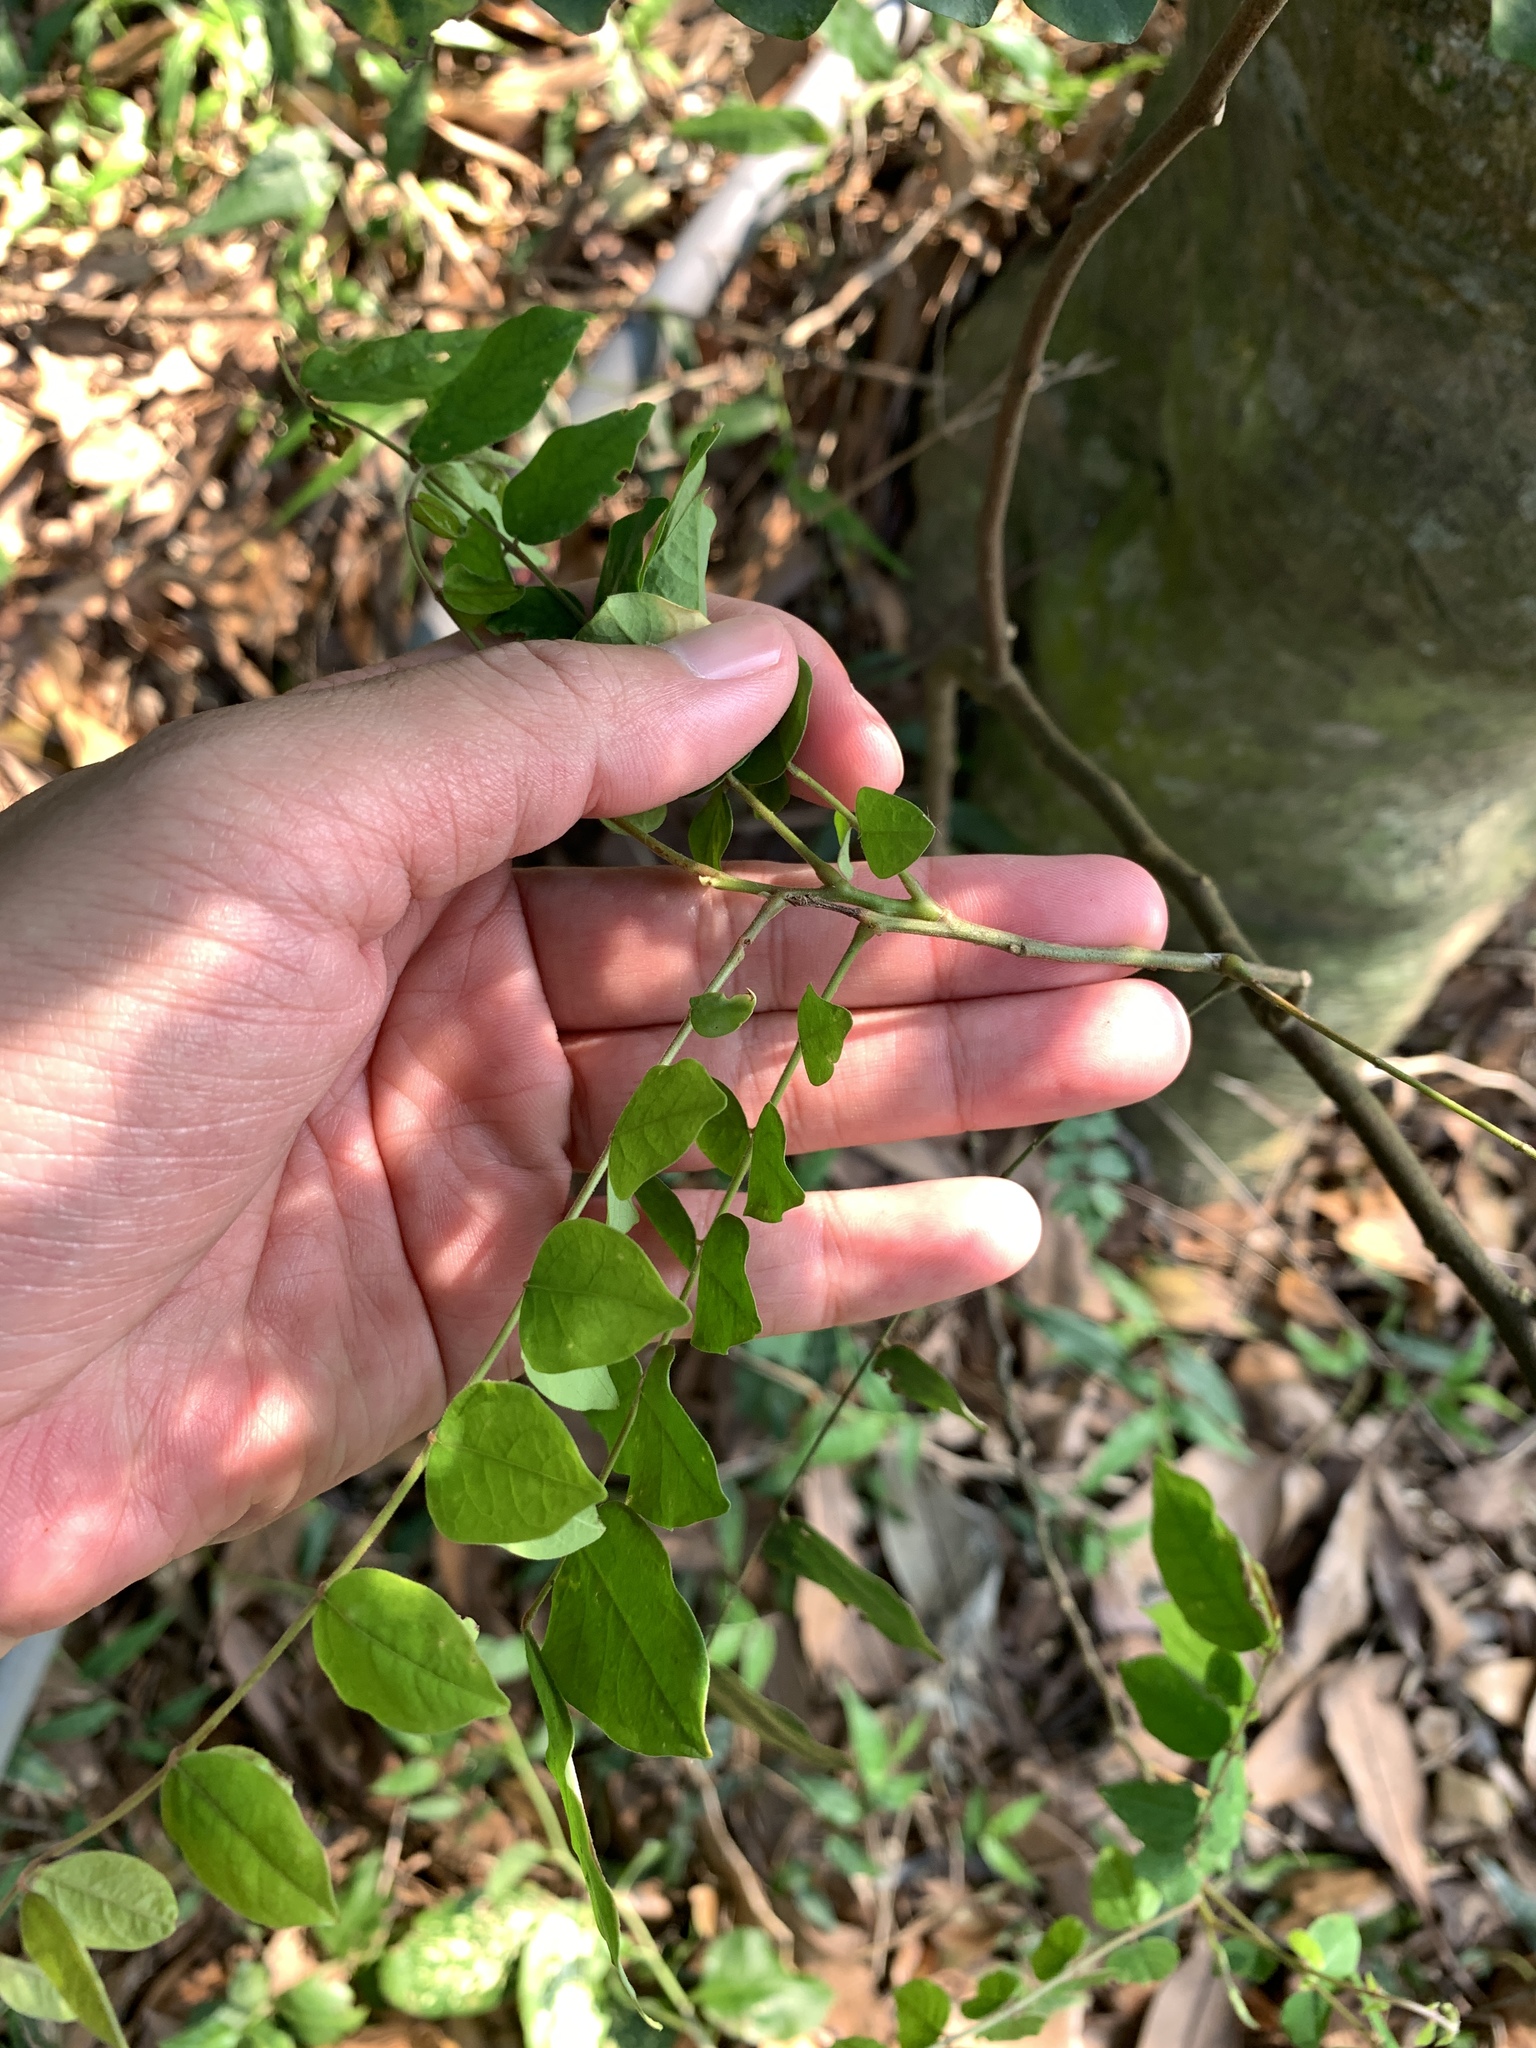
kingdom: Plantae
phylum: Tracheophyta
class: Magnoliopsida
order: Oxalidales
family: Oxalidaceae
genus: Averrhoa
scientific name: Averrhoa carambola
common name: Blimbing
